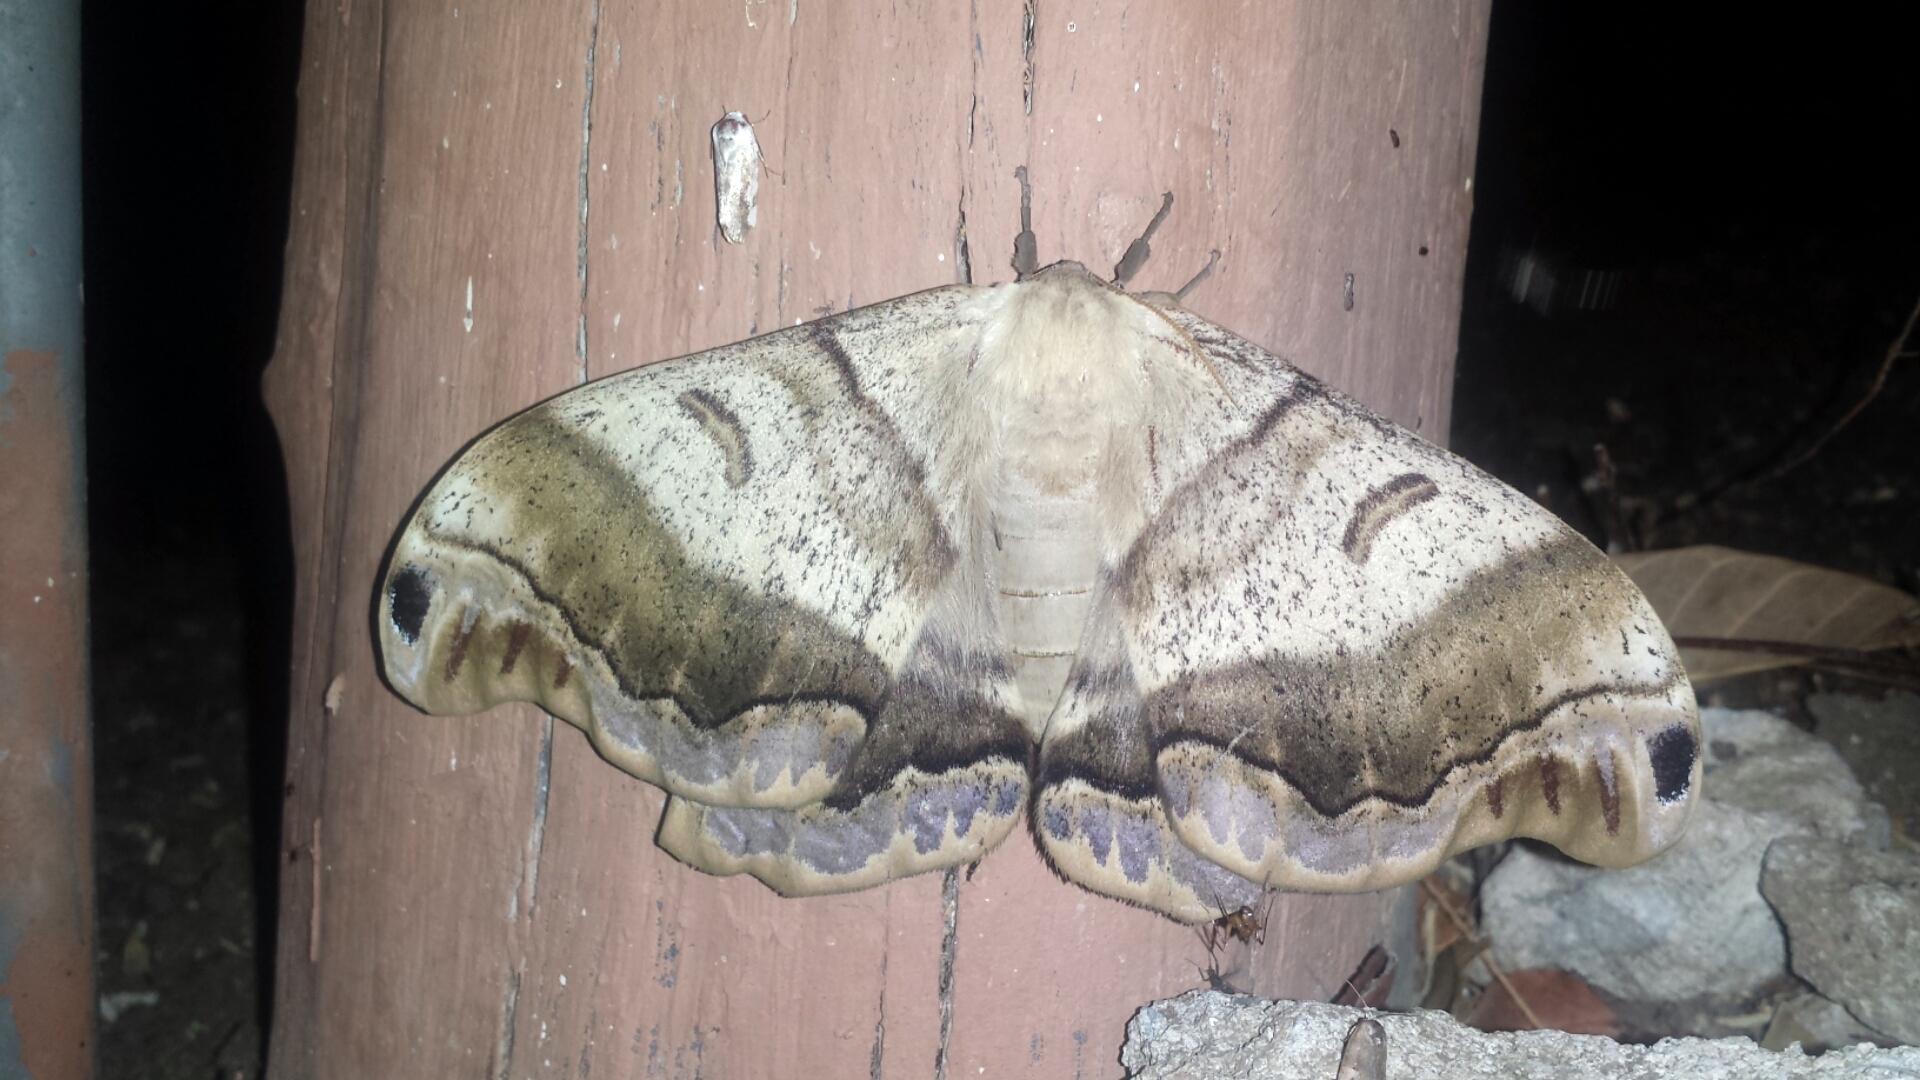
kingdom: Animalia
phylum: Arthropoda
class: Insecta
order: Lepidoptera
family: Saturniidae
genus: Caio
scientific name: Caio championi
